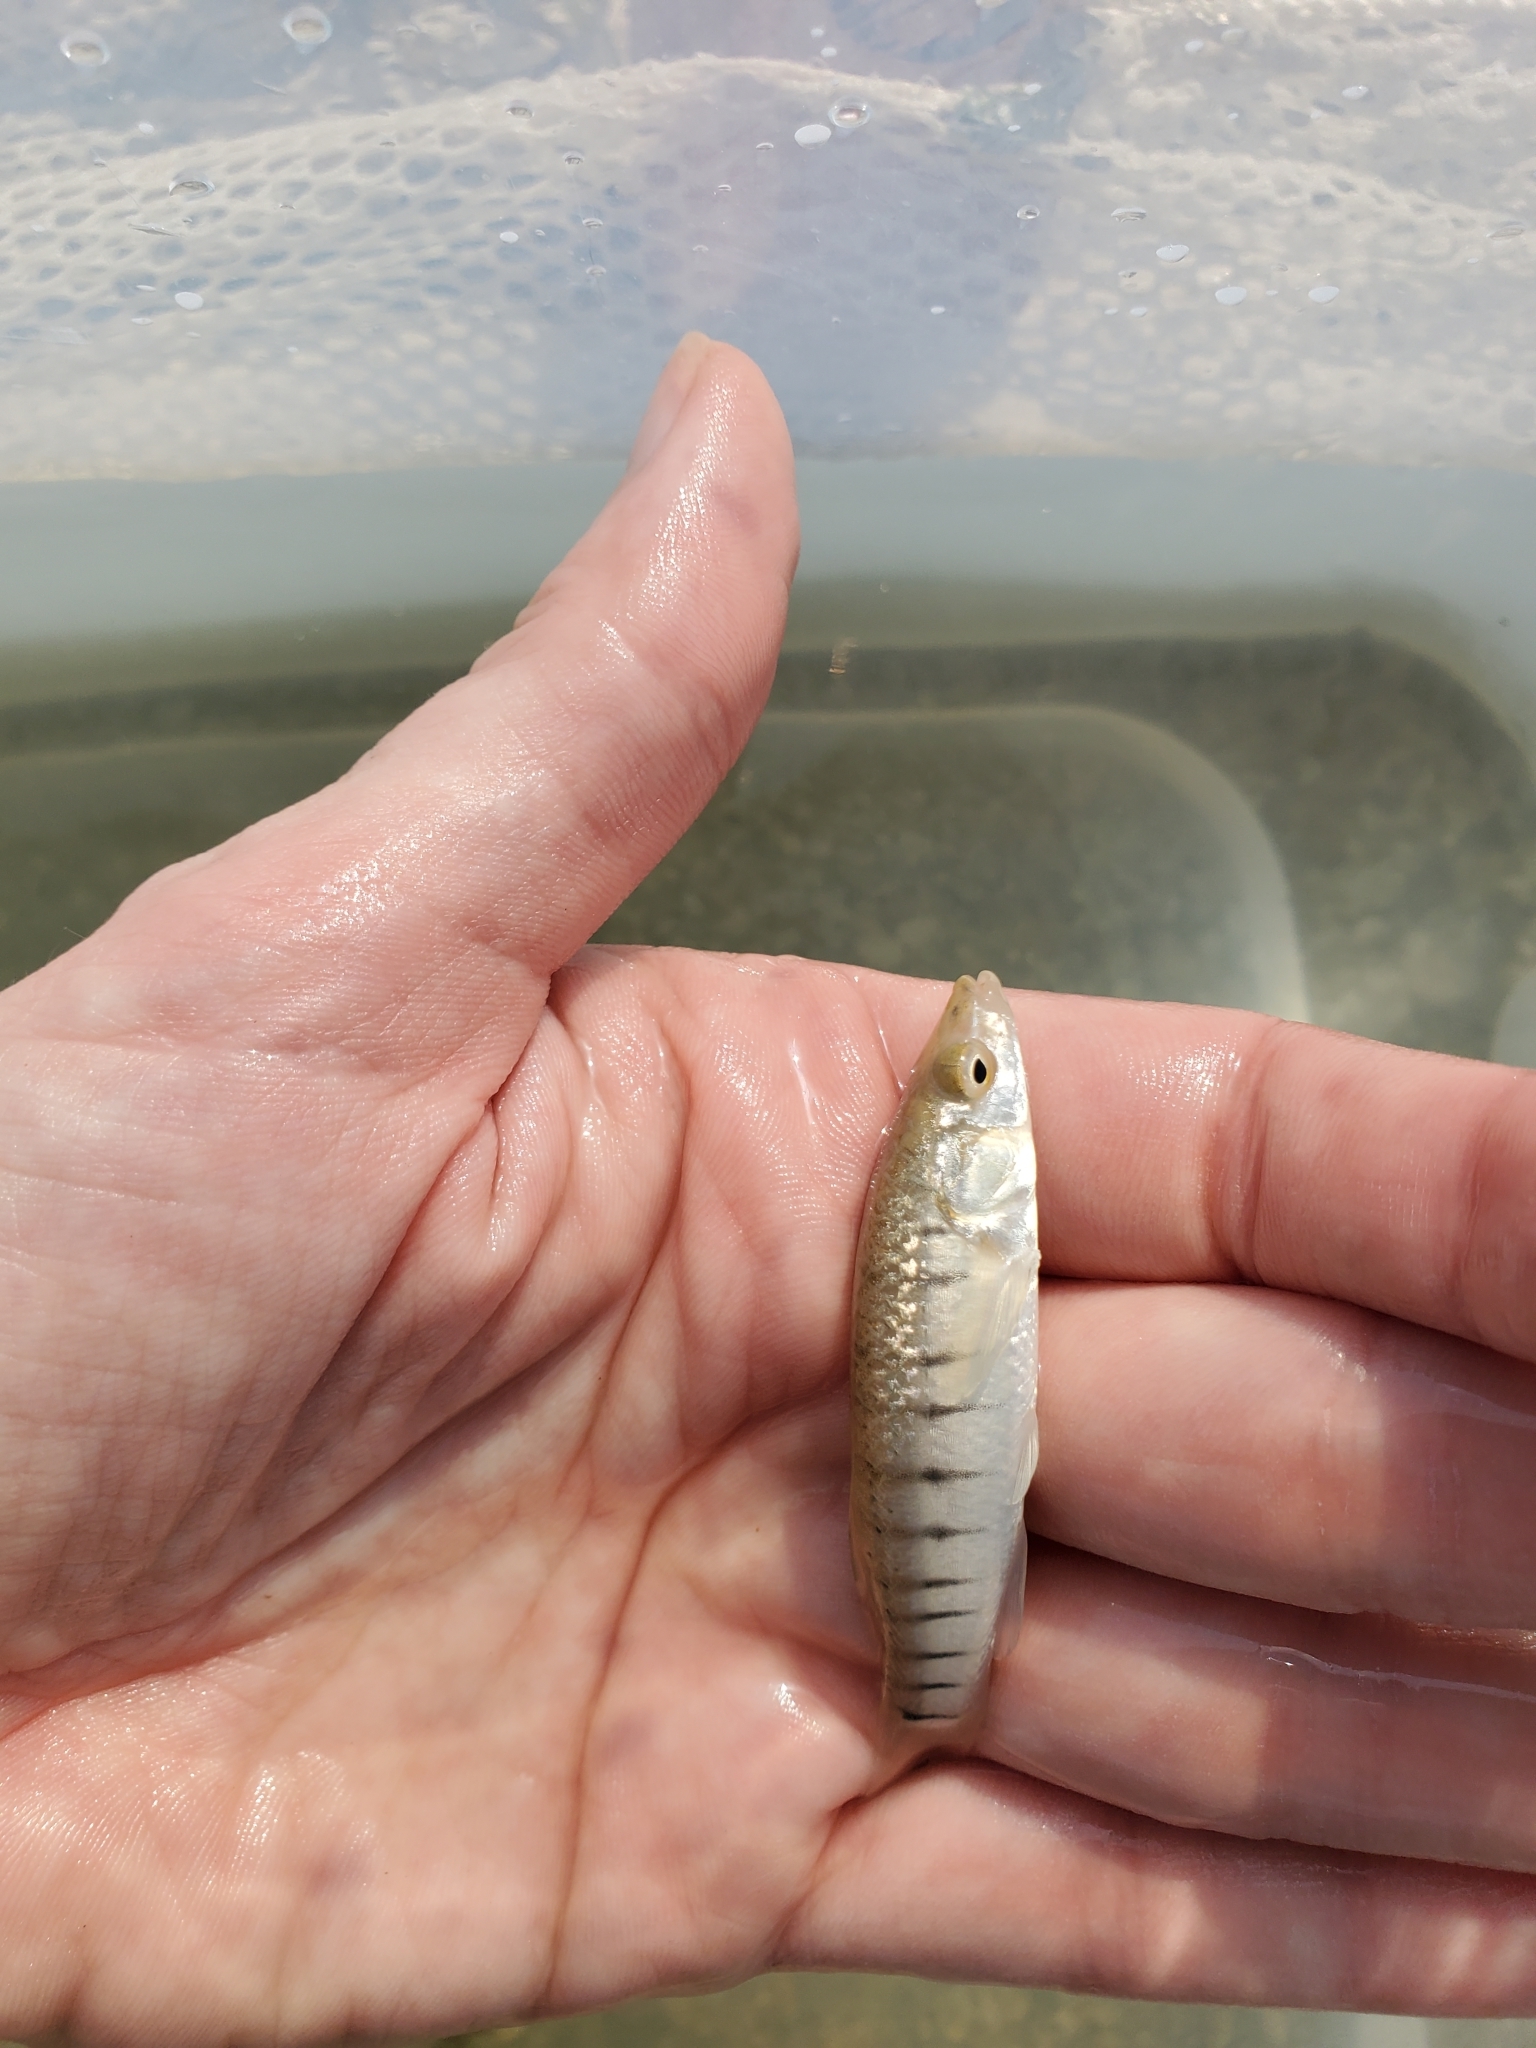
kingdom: Animalia
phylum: Chordata
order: Cyprinodontiformes
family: Fundulidae
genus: Fundulus
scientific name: Fundulus majalis
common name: Striped killifish
